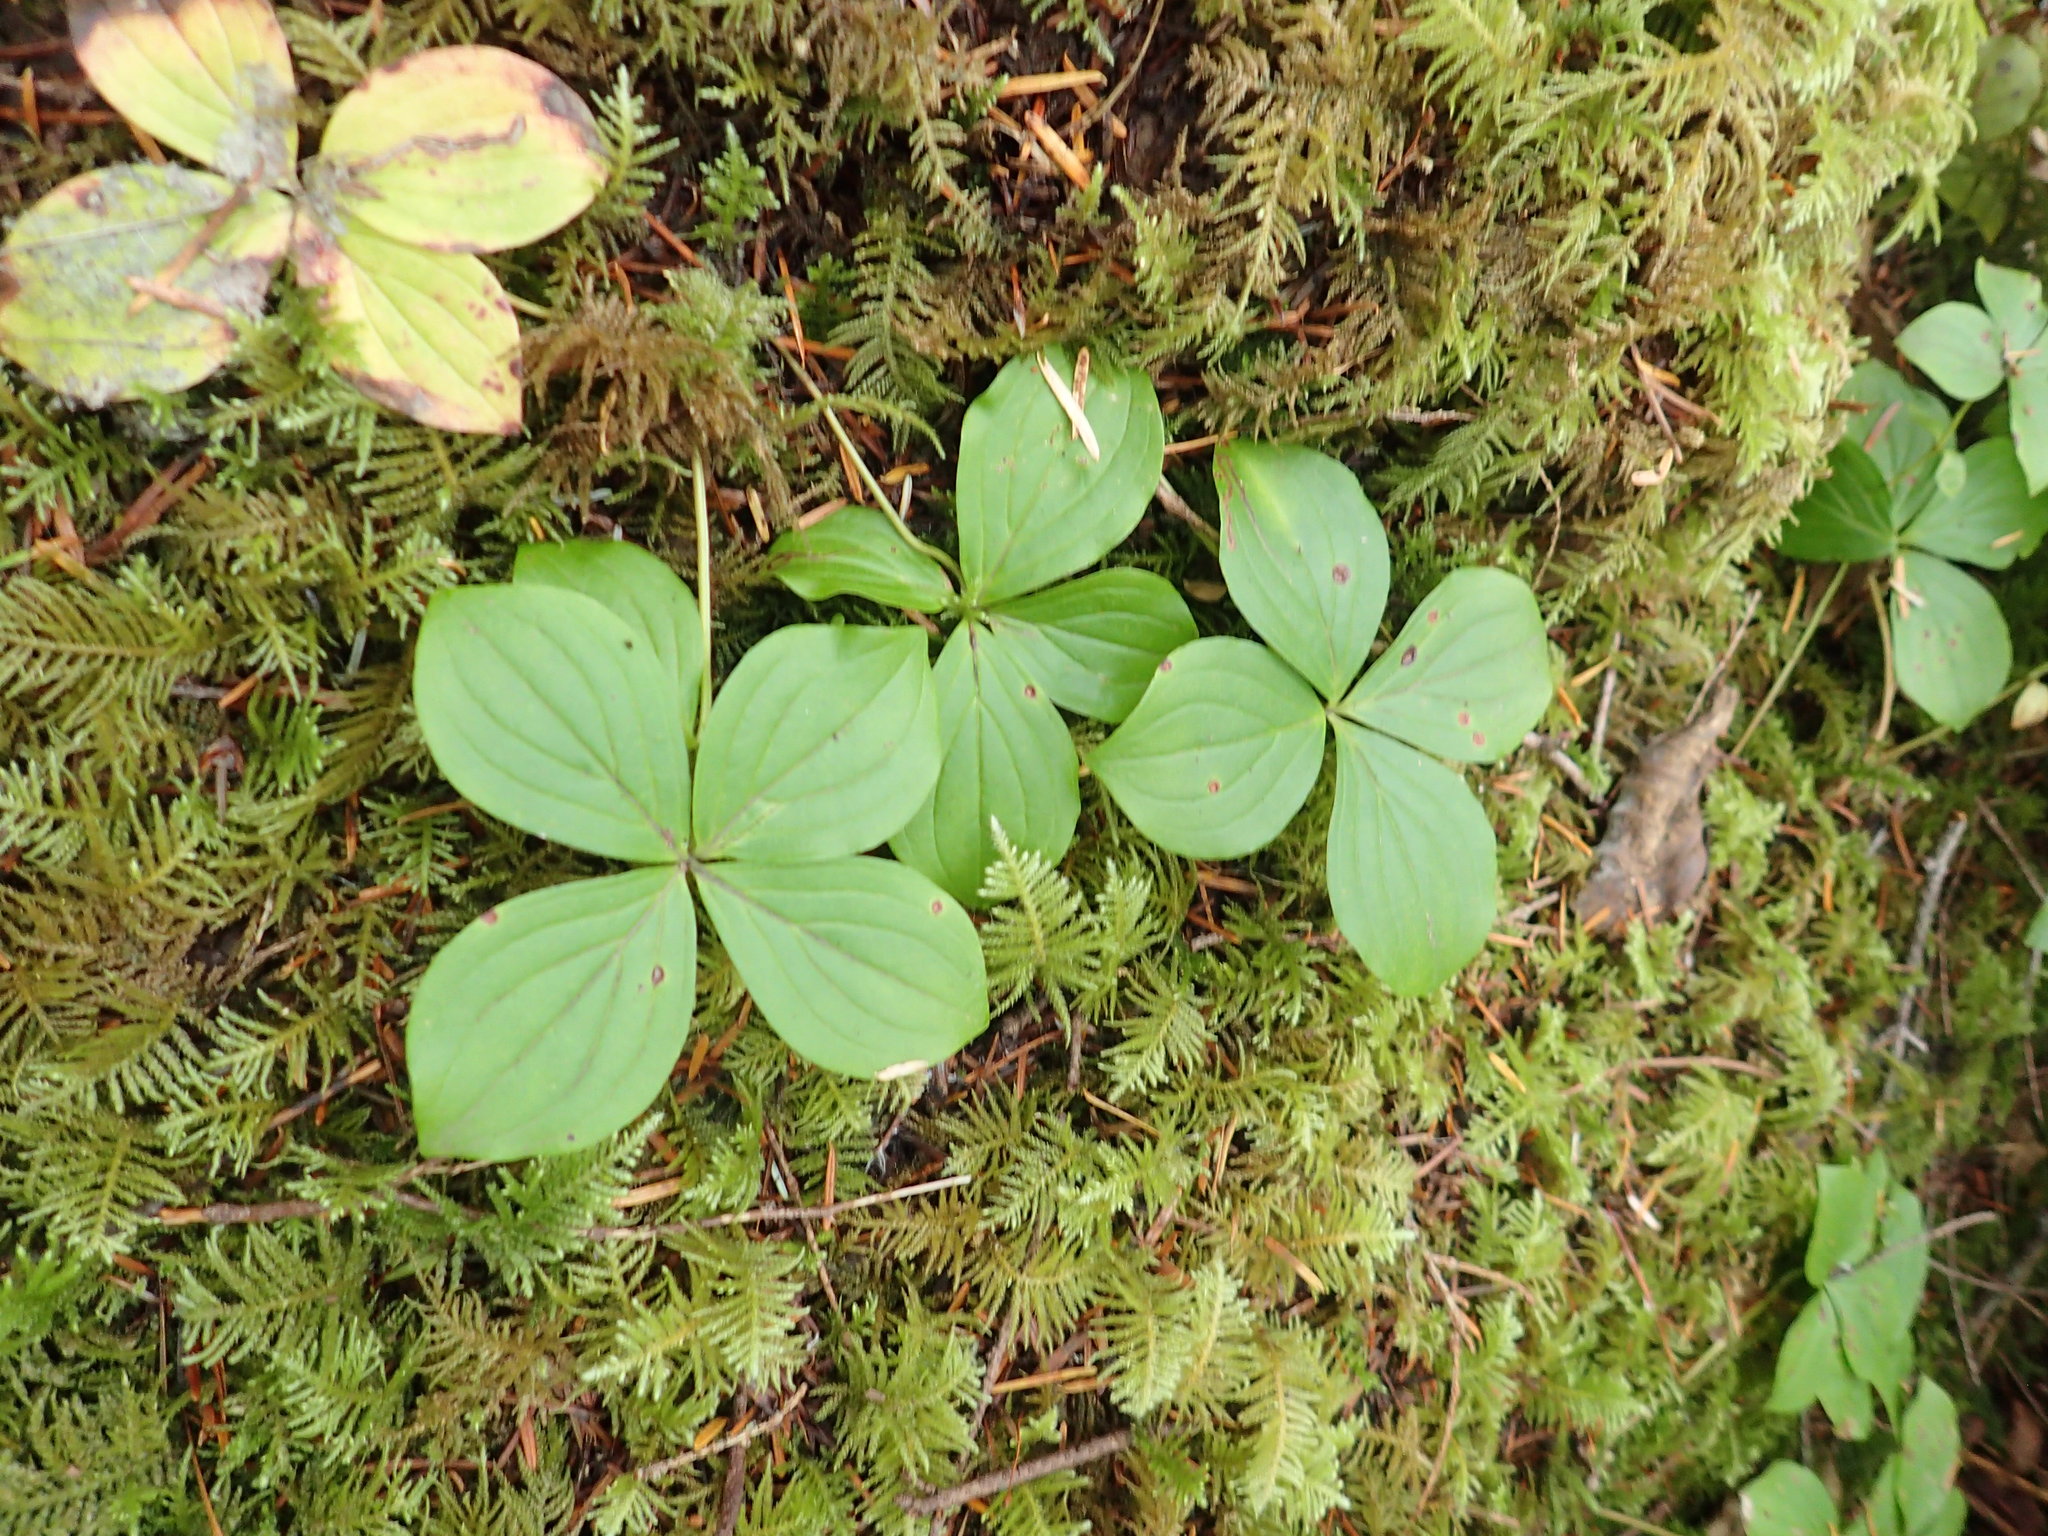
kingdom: Plantae
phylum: Tracheophyta
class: Magnoliopsida
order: Cornales
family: Cornaceae
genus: Cornus
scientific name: Cornus unalaschkensis
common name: Alaska bunchberry
